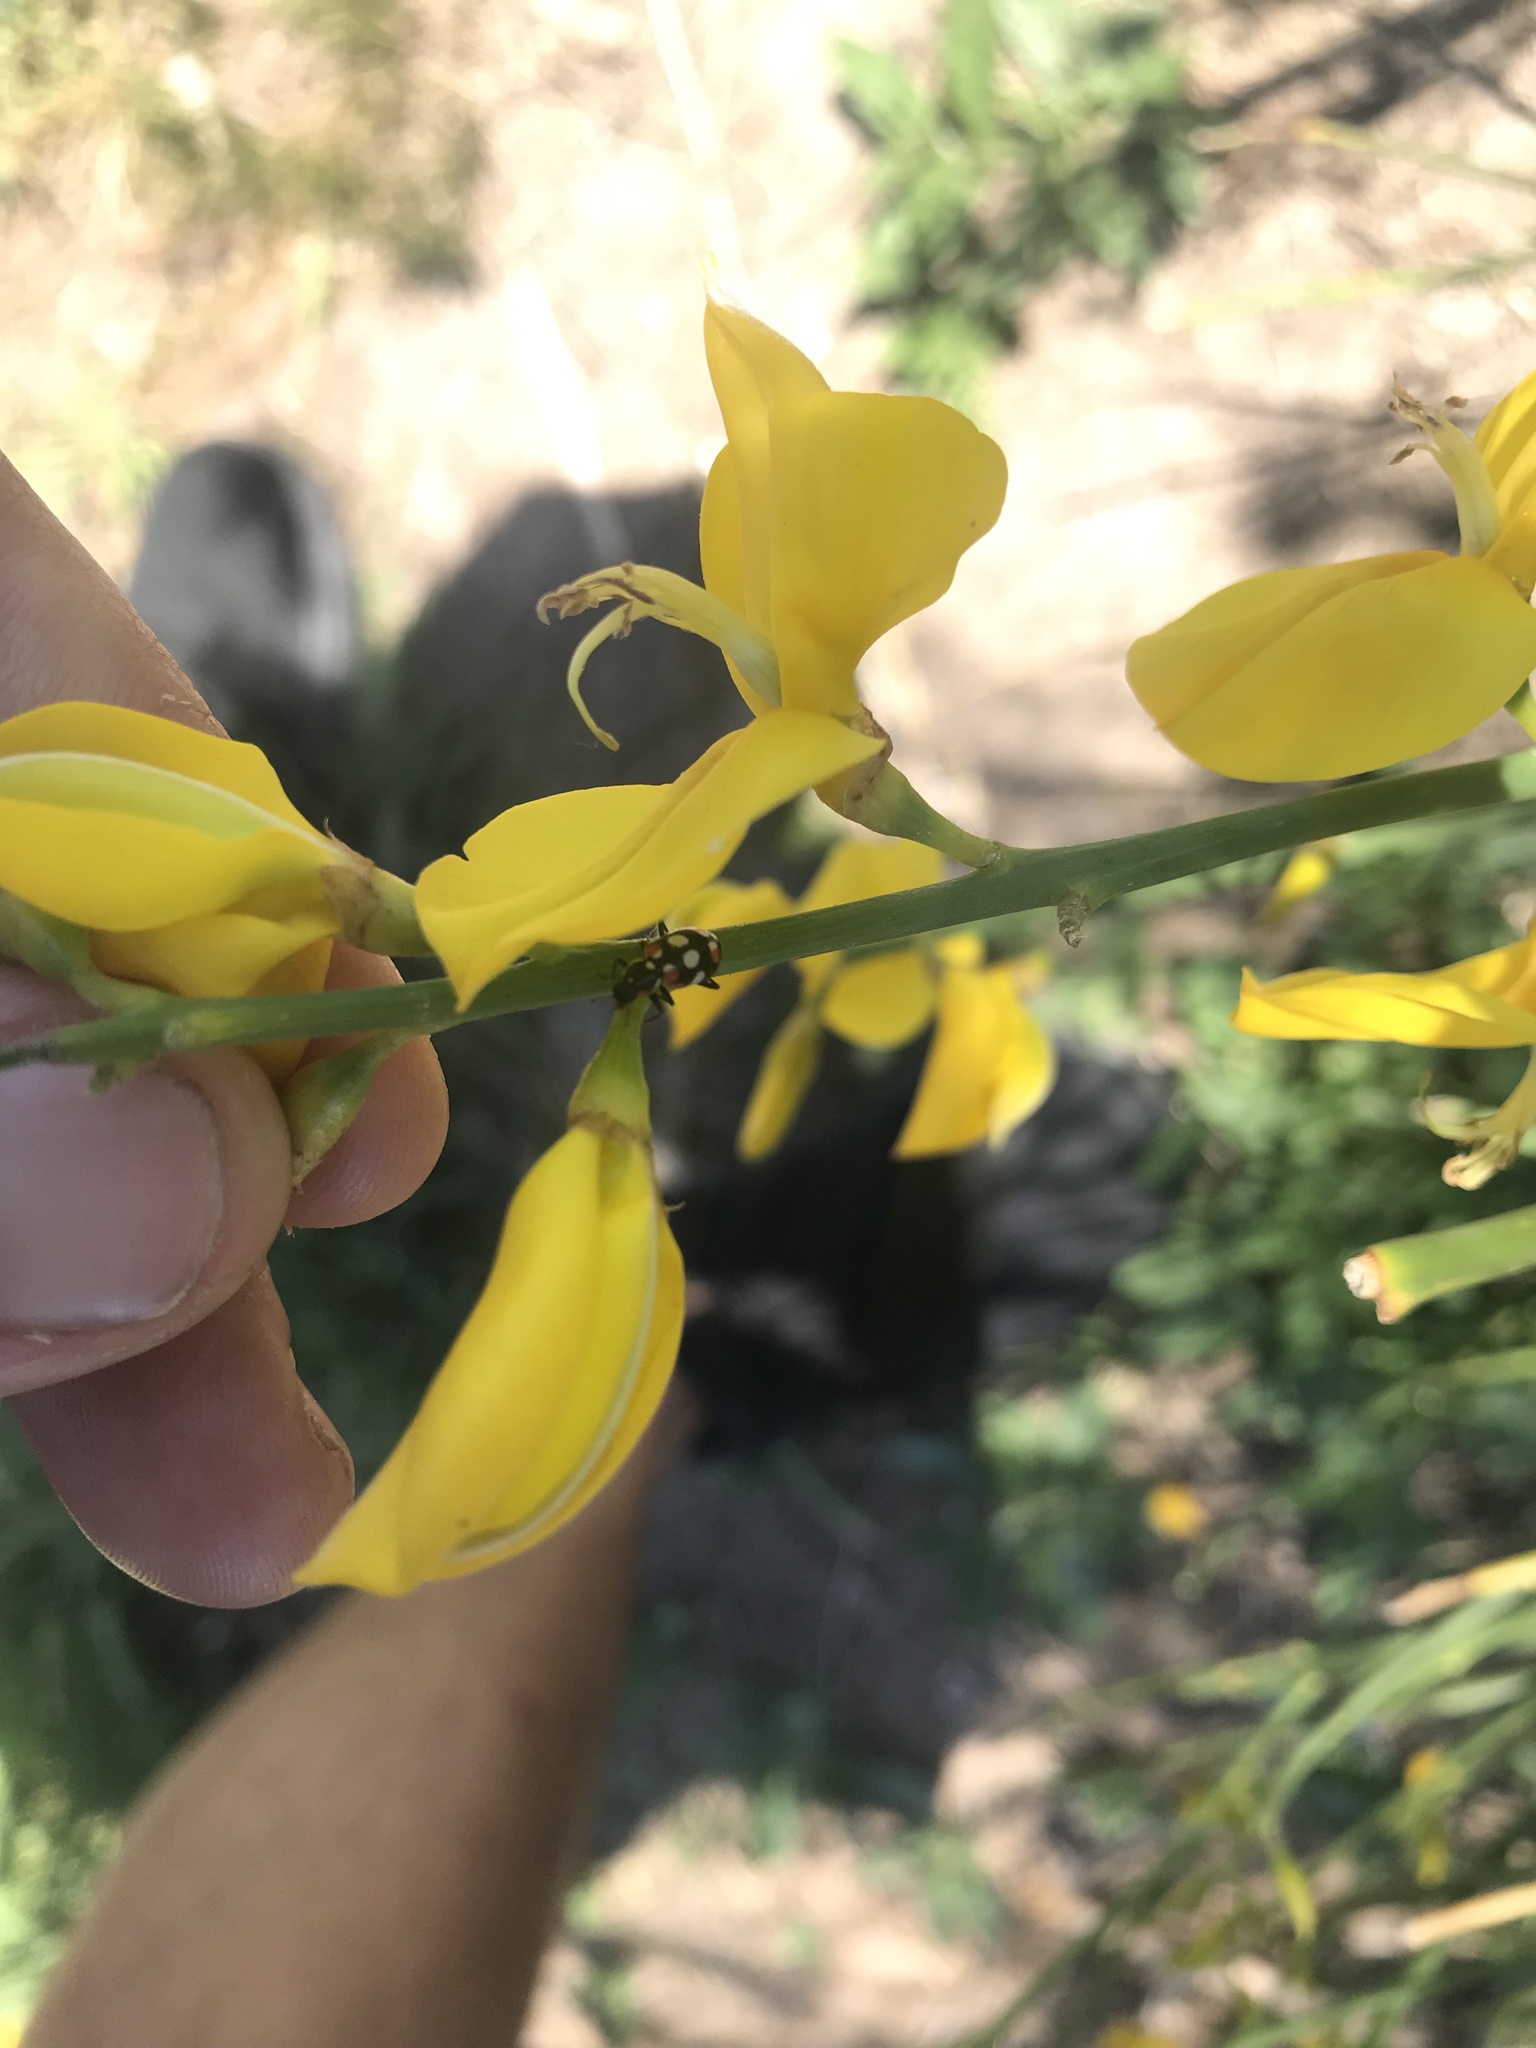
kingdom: Animalia
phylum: Arthropoda
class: Insecta
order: Coleoptera
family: Coccinellidae
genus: Eriopis
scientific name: Eriopis connexa
